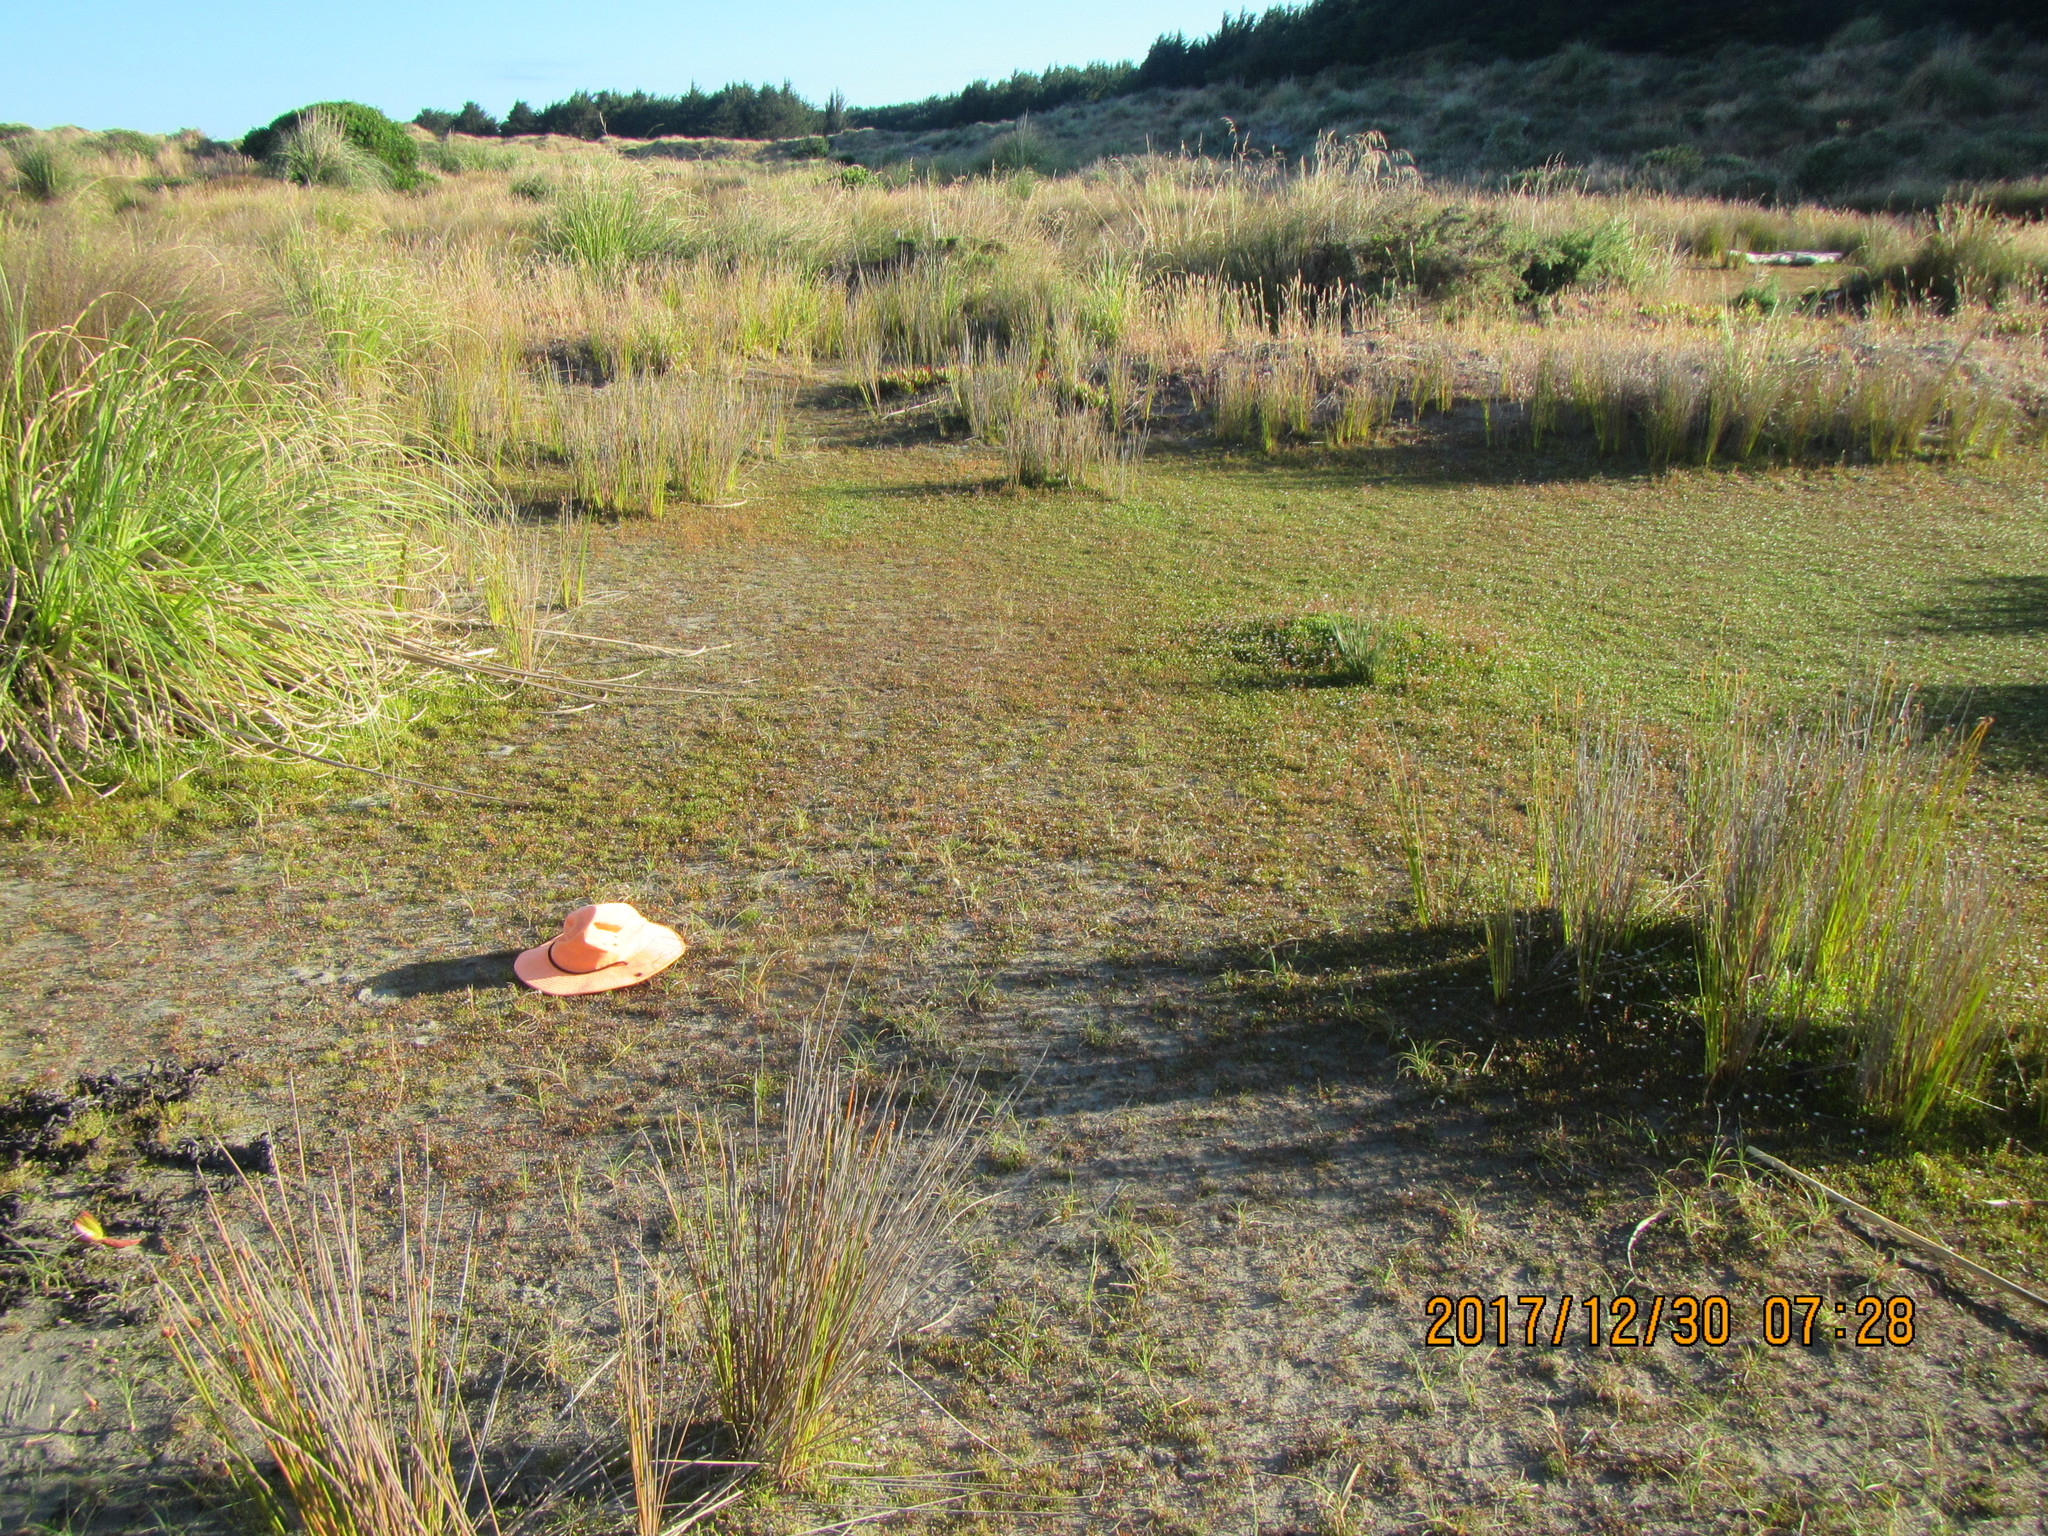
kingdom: Plantae
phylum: Tracheophyta
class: Liliopsida
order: Poales
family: Cyperaceae
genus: Isolepis
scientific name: Isolepis cernua
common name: Slender club-rush
